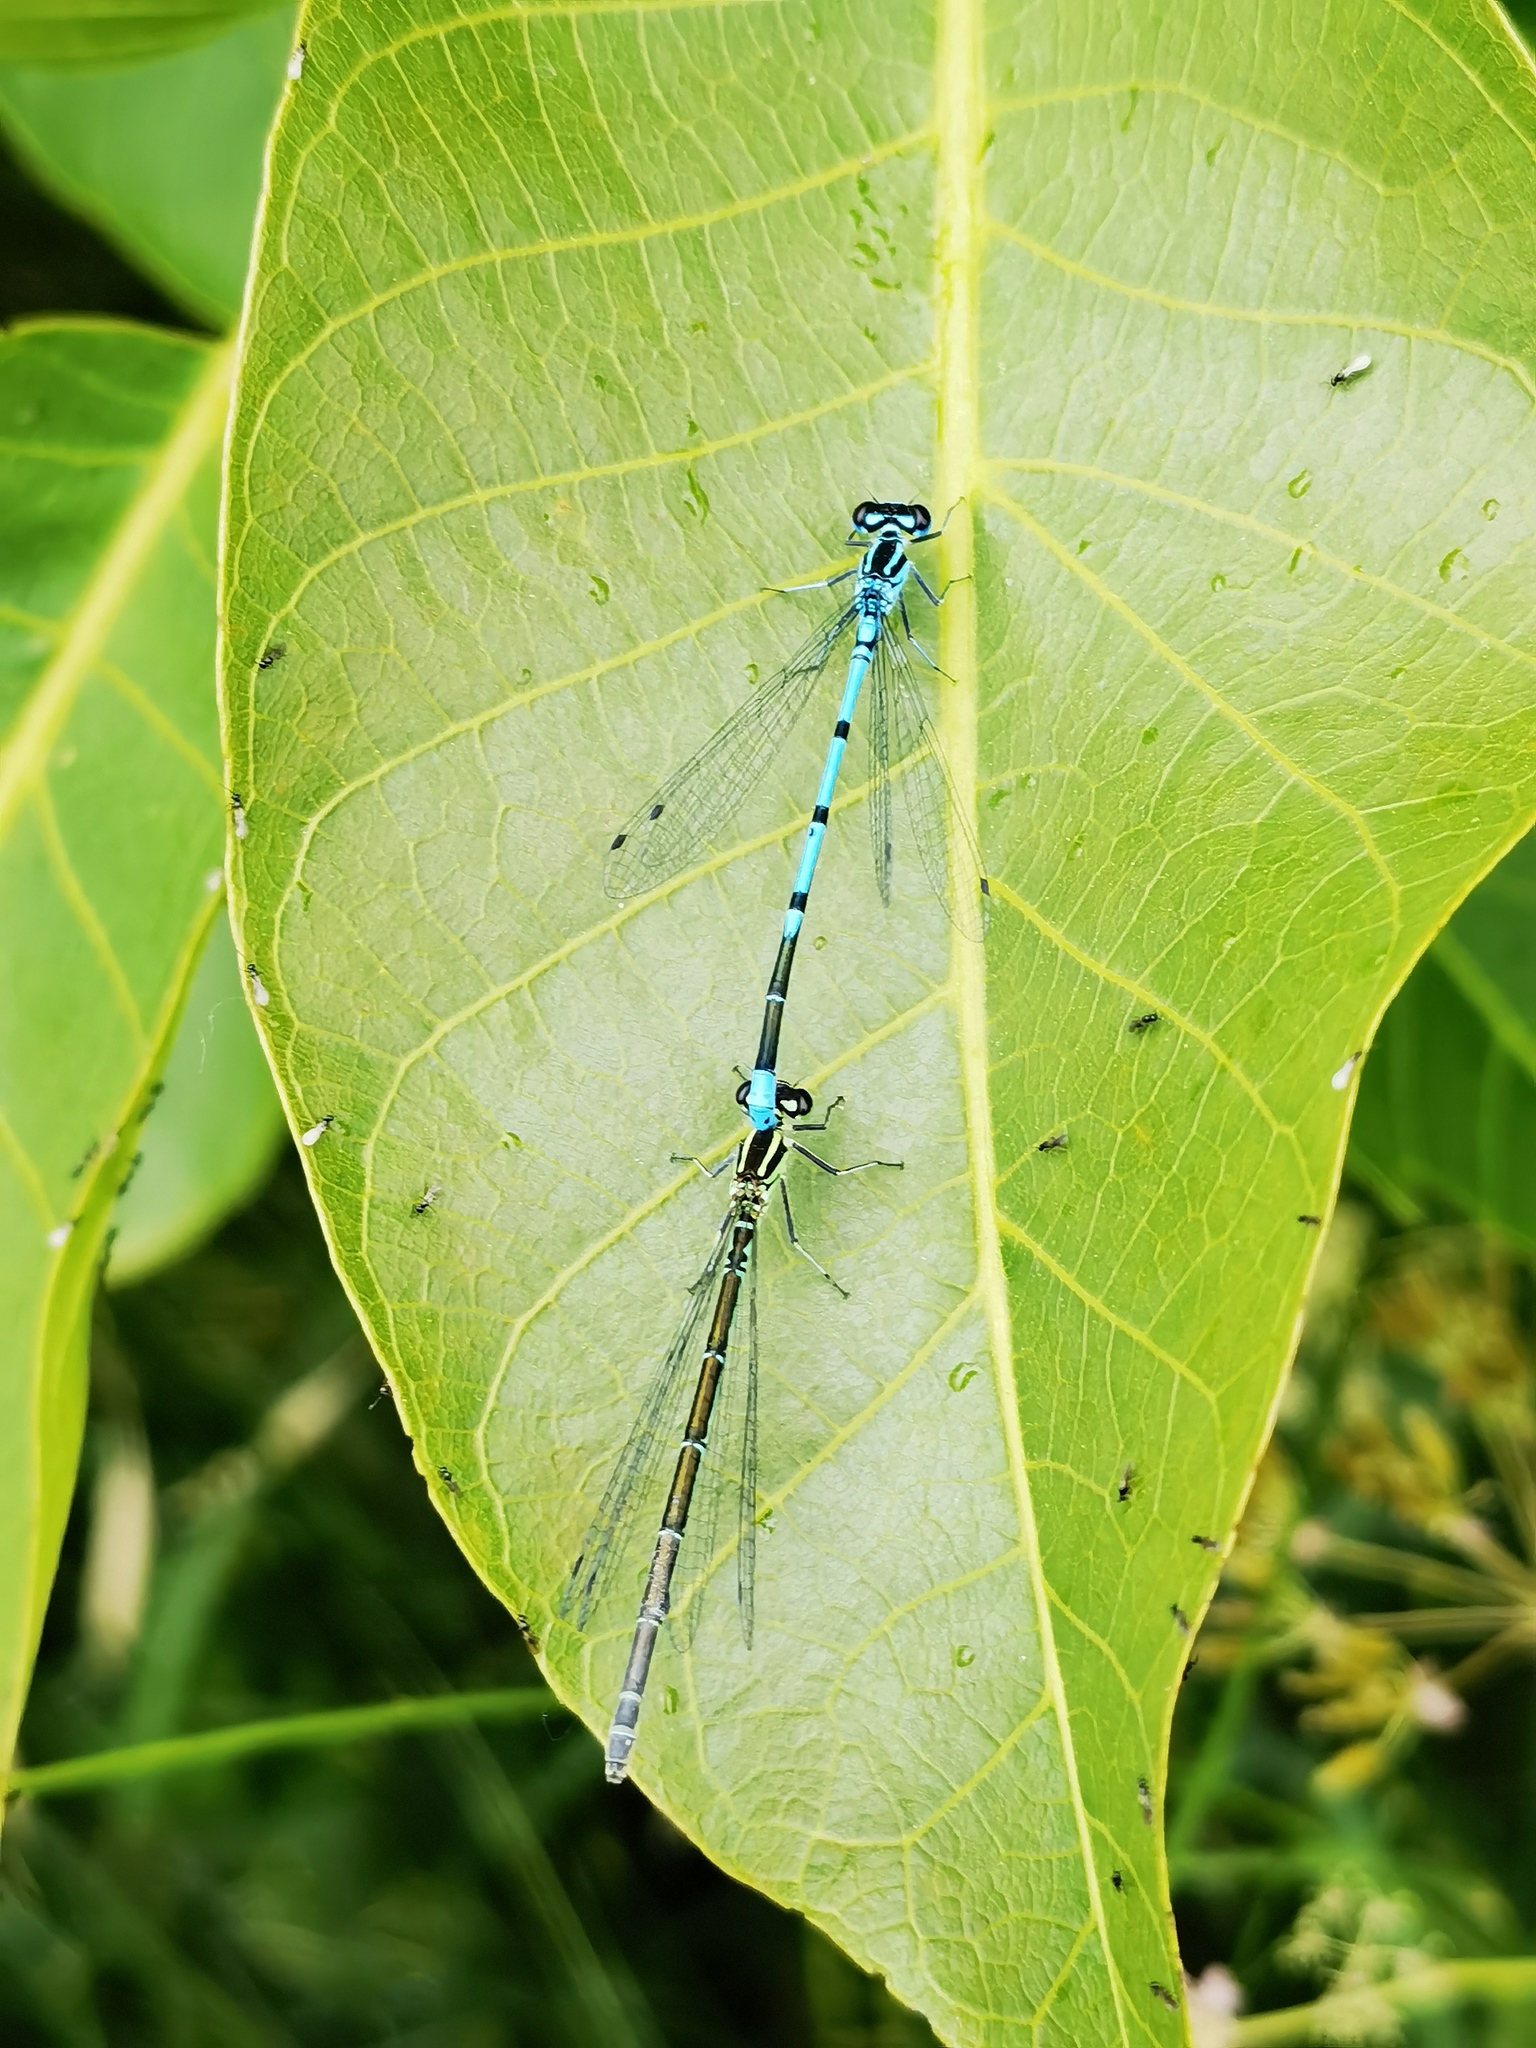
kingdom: Animalia
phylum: Arthropoda
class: Insecta
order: Odonata
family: Coenagrionidae
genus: Coenagrion
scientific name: Coenagrion puella
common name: Azure damselfly
